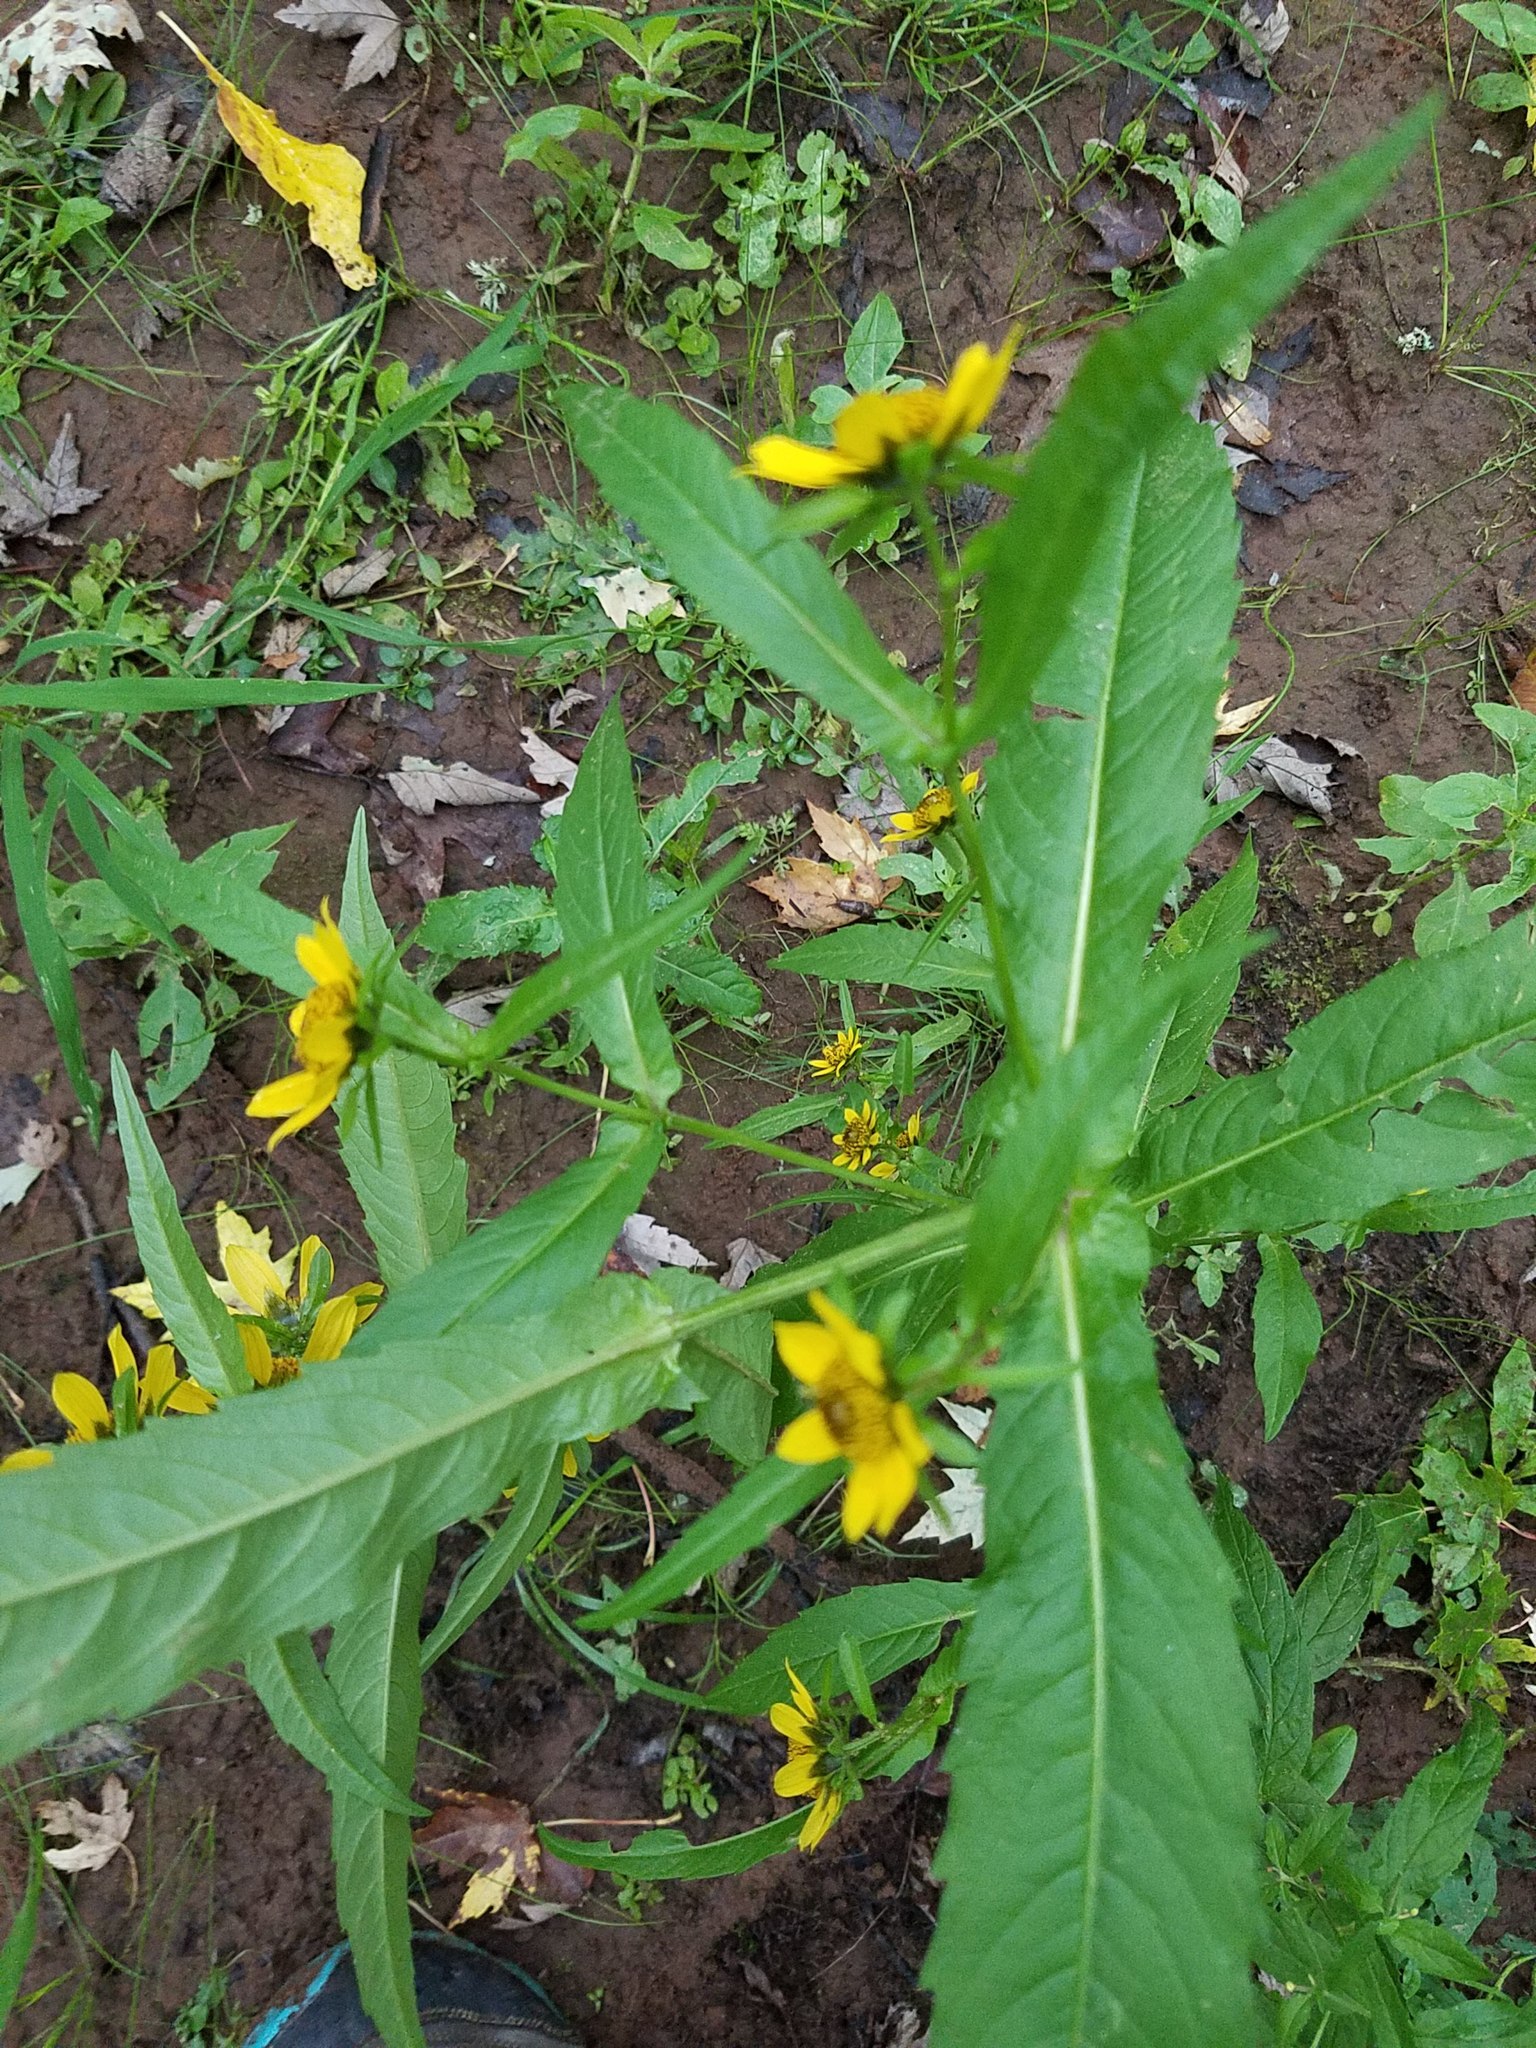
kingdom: Plantae
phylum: Tracheophyta
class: Magnoliopsida
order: Asterales
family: Asteraceae
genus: Bidens
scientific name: Bidens cernua
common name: Nodding bur-marigold
